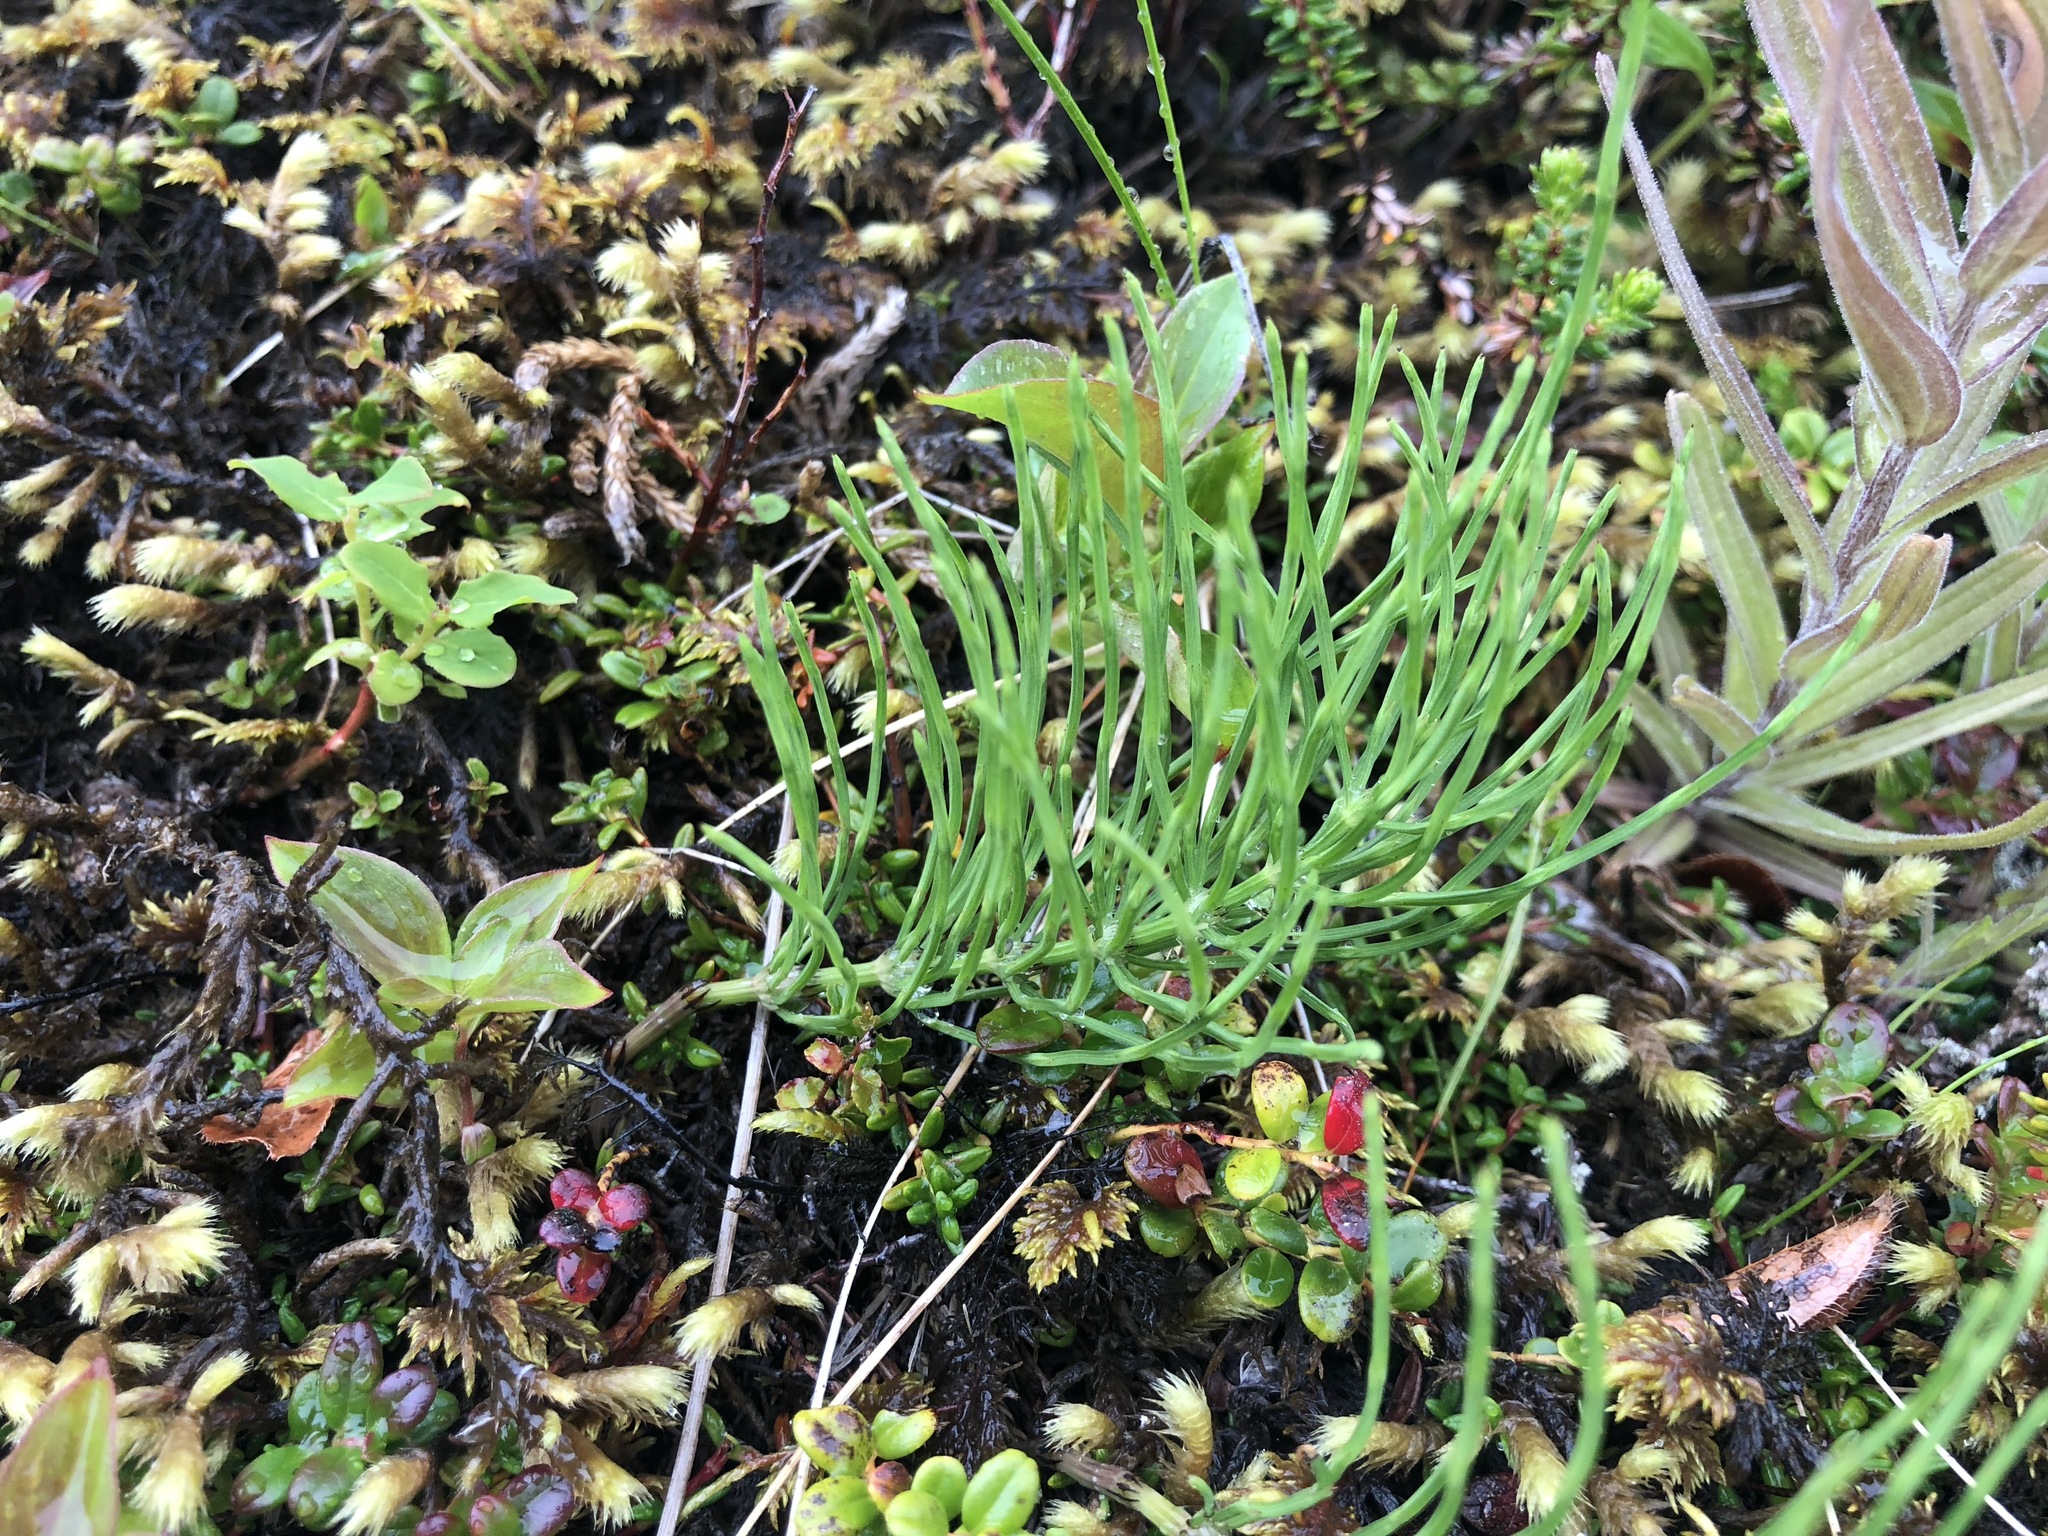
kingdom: Plantae
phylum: Tracheophyta
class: Polypodiopsida
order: Equisetales
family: Equisetaceae
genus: Equisetum
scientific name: Equisetum arvense
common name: Field horsetail
